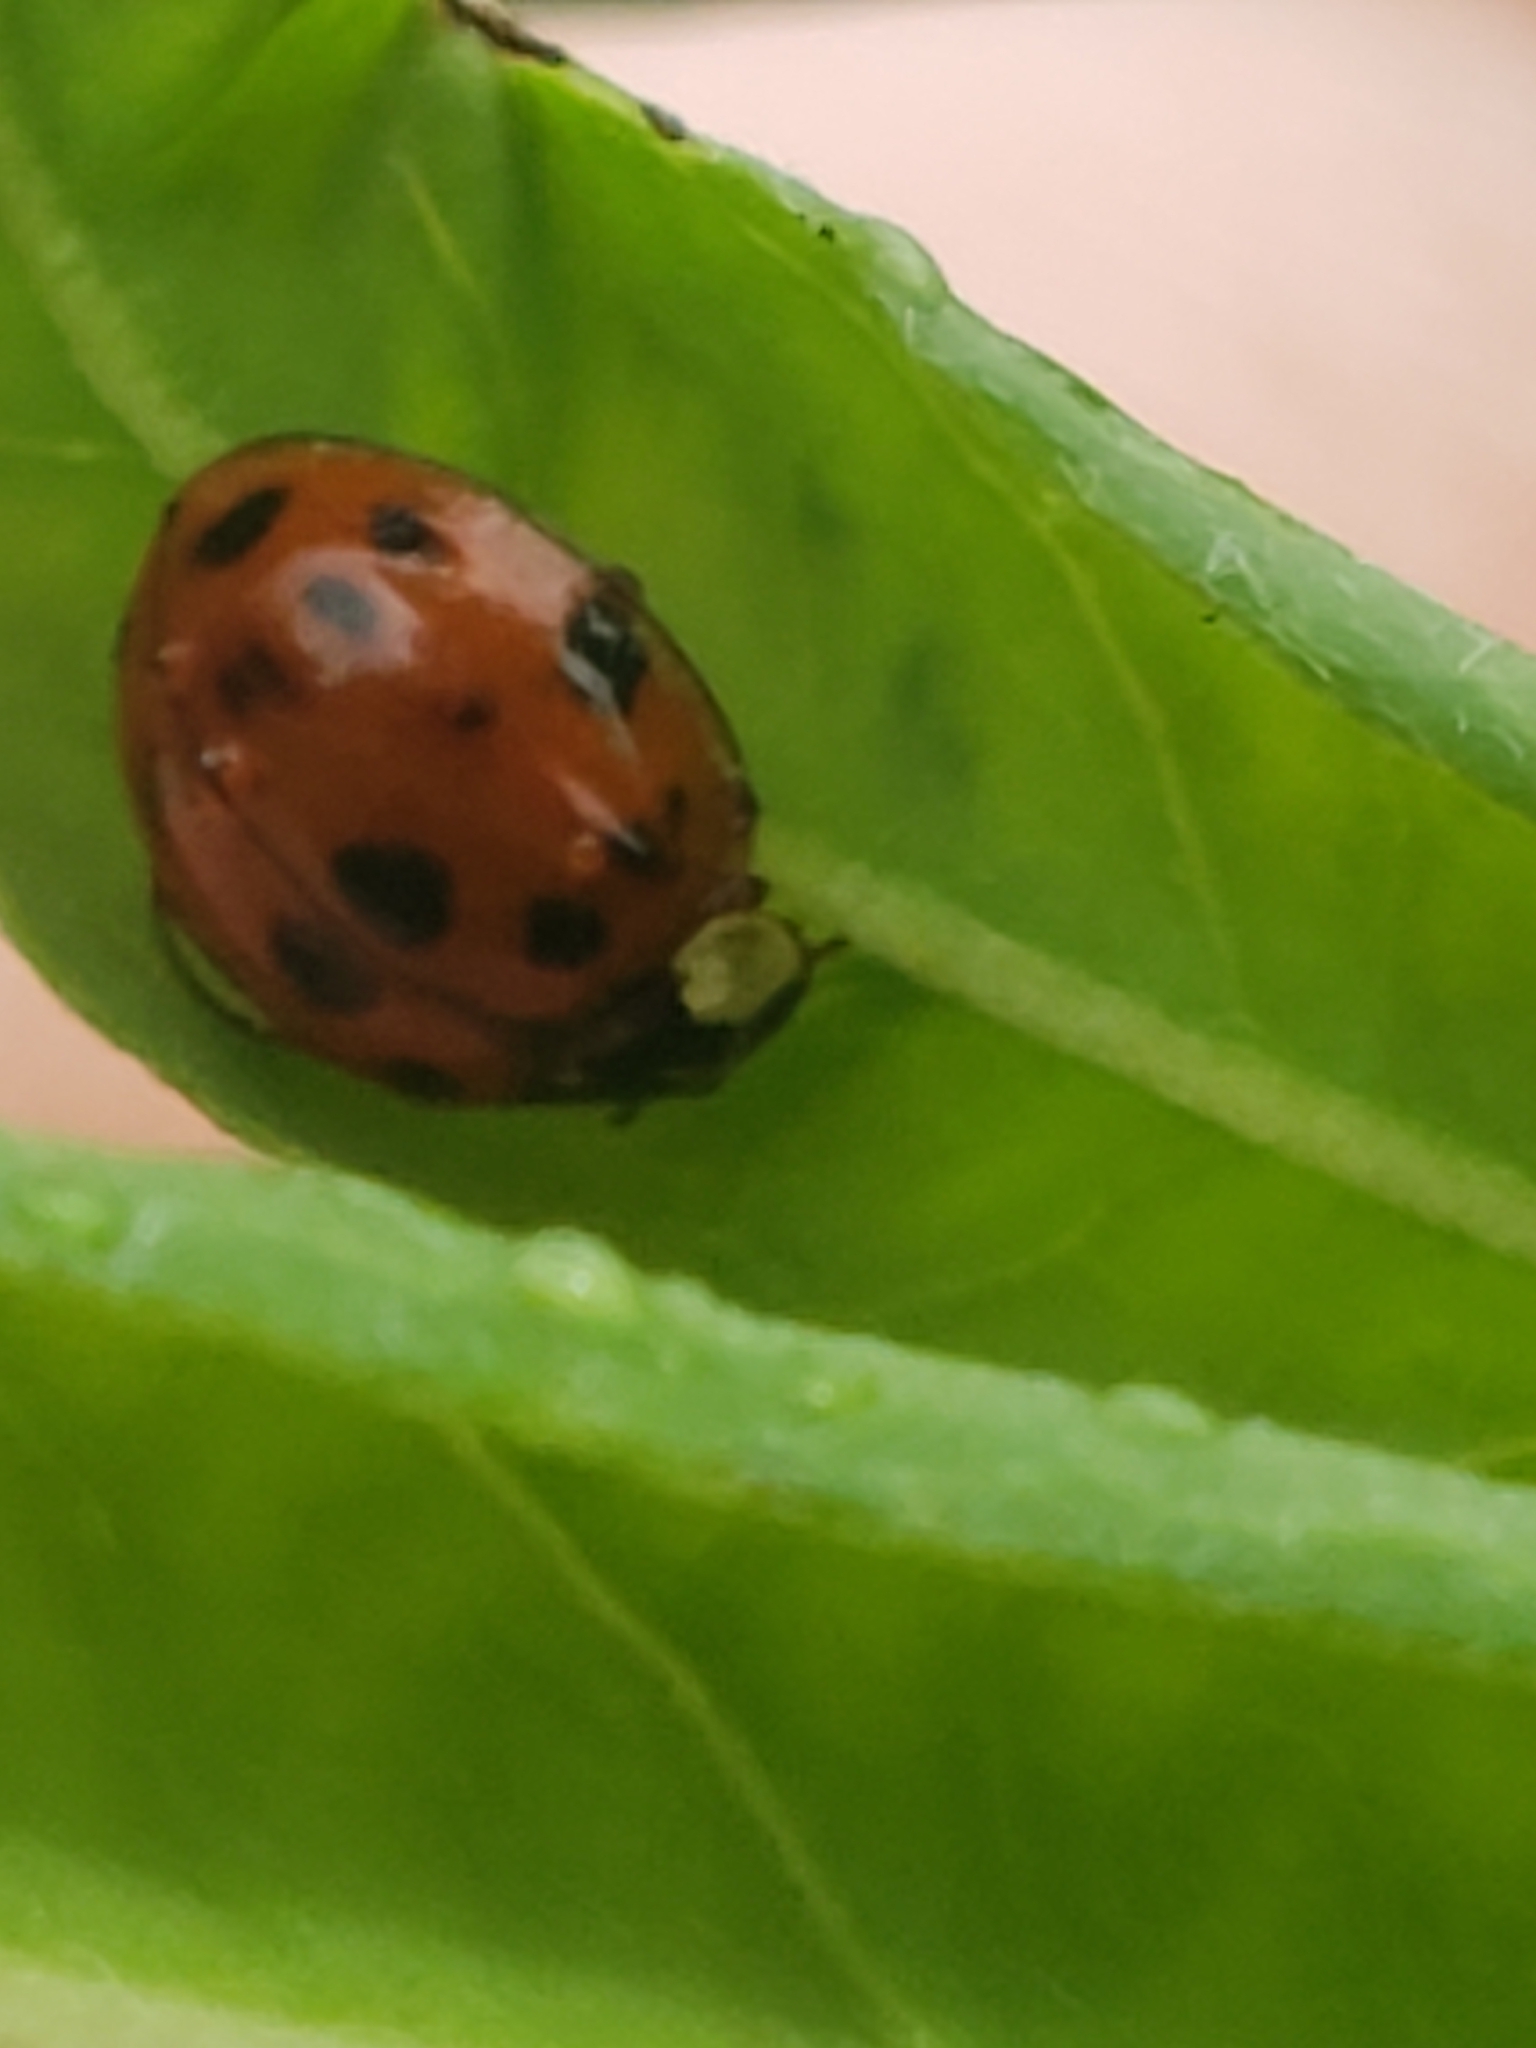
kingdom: Animalia
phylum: Arthropoda
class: Insecta
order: Coleoptera
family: Coccinellidae
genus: Harmonia
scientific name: Harmonia axyridis
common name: Harlequin ladybird
